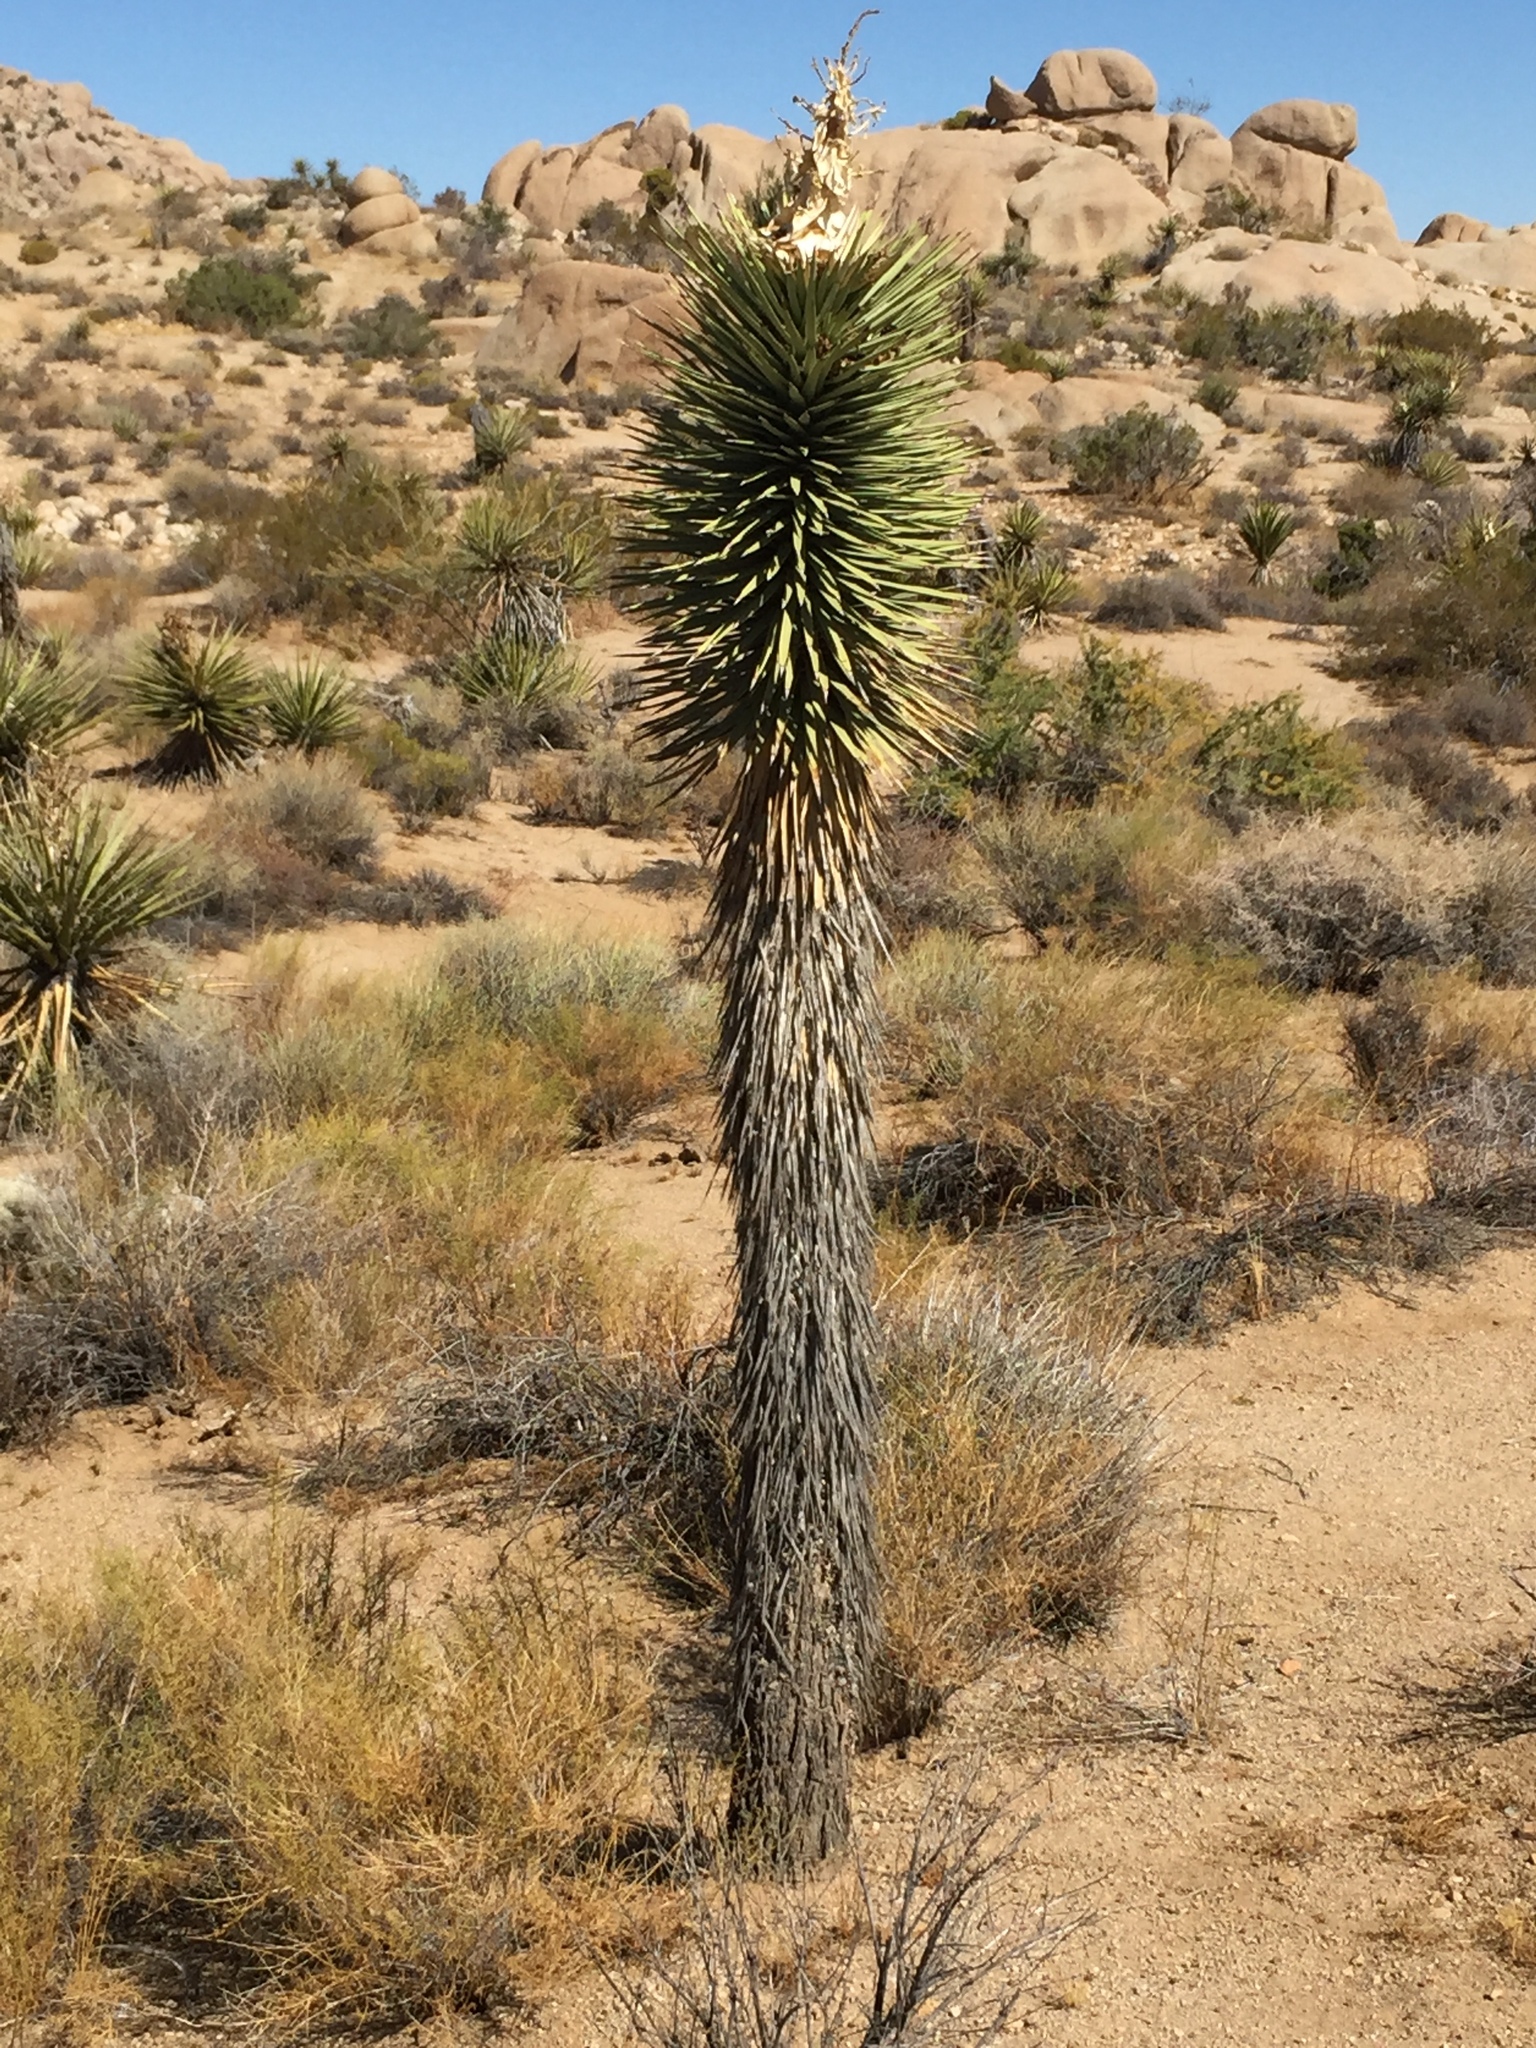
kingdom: Plantae
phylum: Tracheophyta
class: Liliopsida
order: Asparagales
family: Asparagaceae
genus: Yucca
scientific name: Yucca brevifolia
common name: Joshua tree
